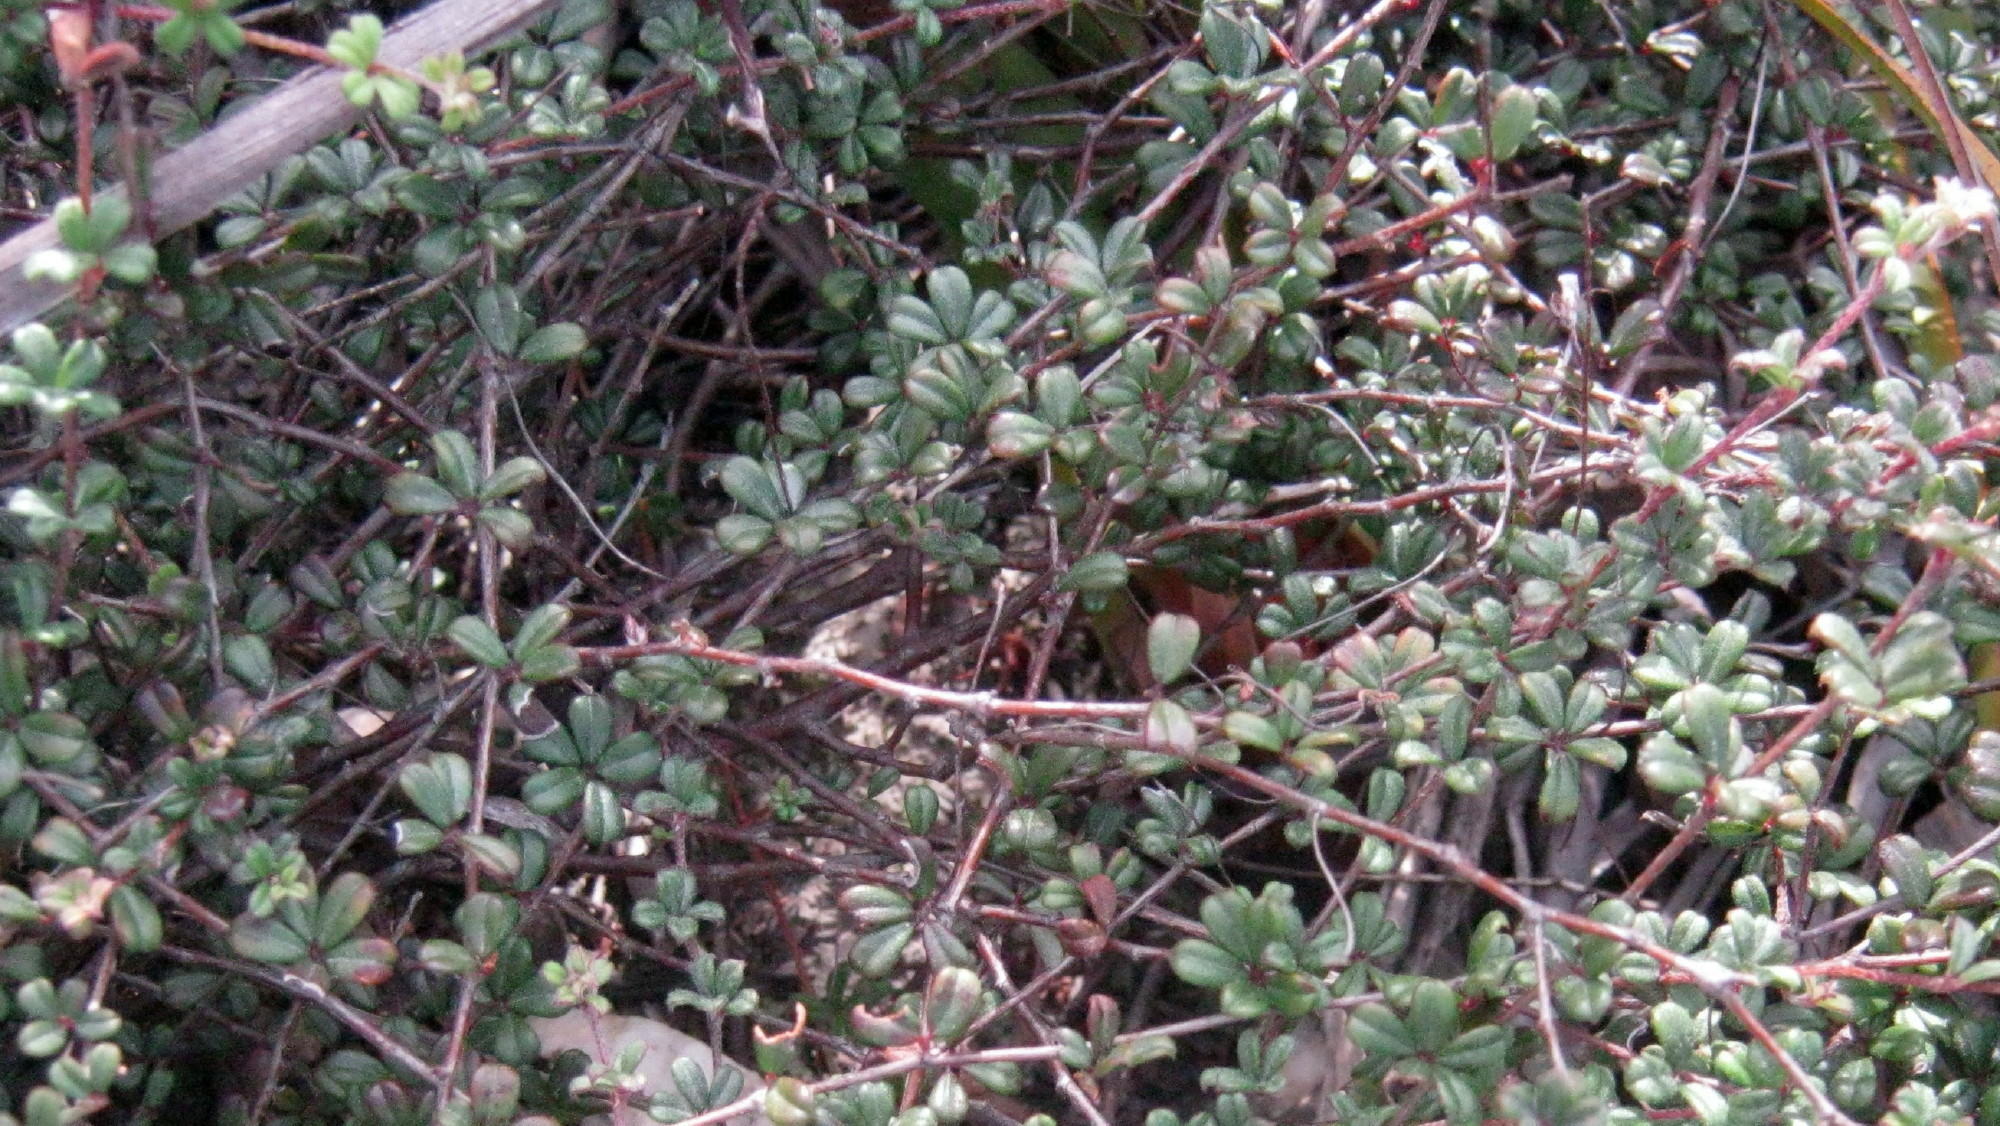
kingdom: Plantae
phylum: Tracheophyta
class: Magnoliopsida
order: Fabales
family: Fabaceae
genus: Indigofera
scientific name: Indigofera
